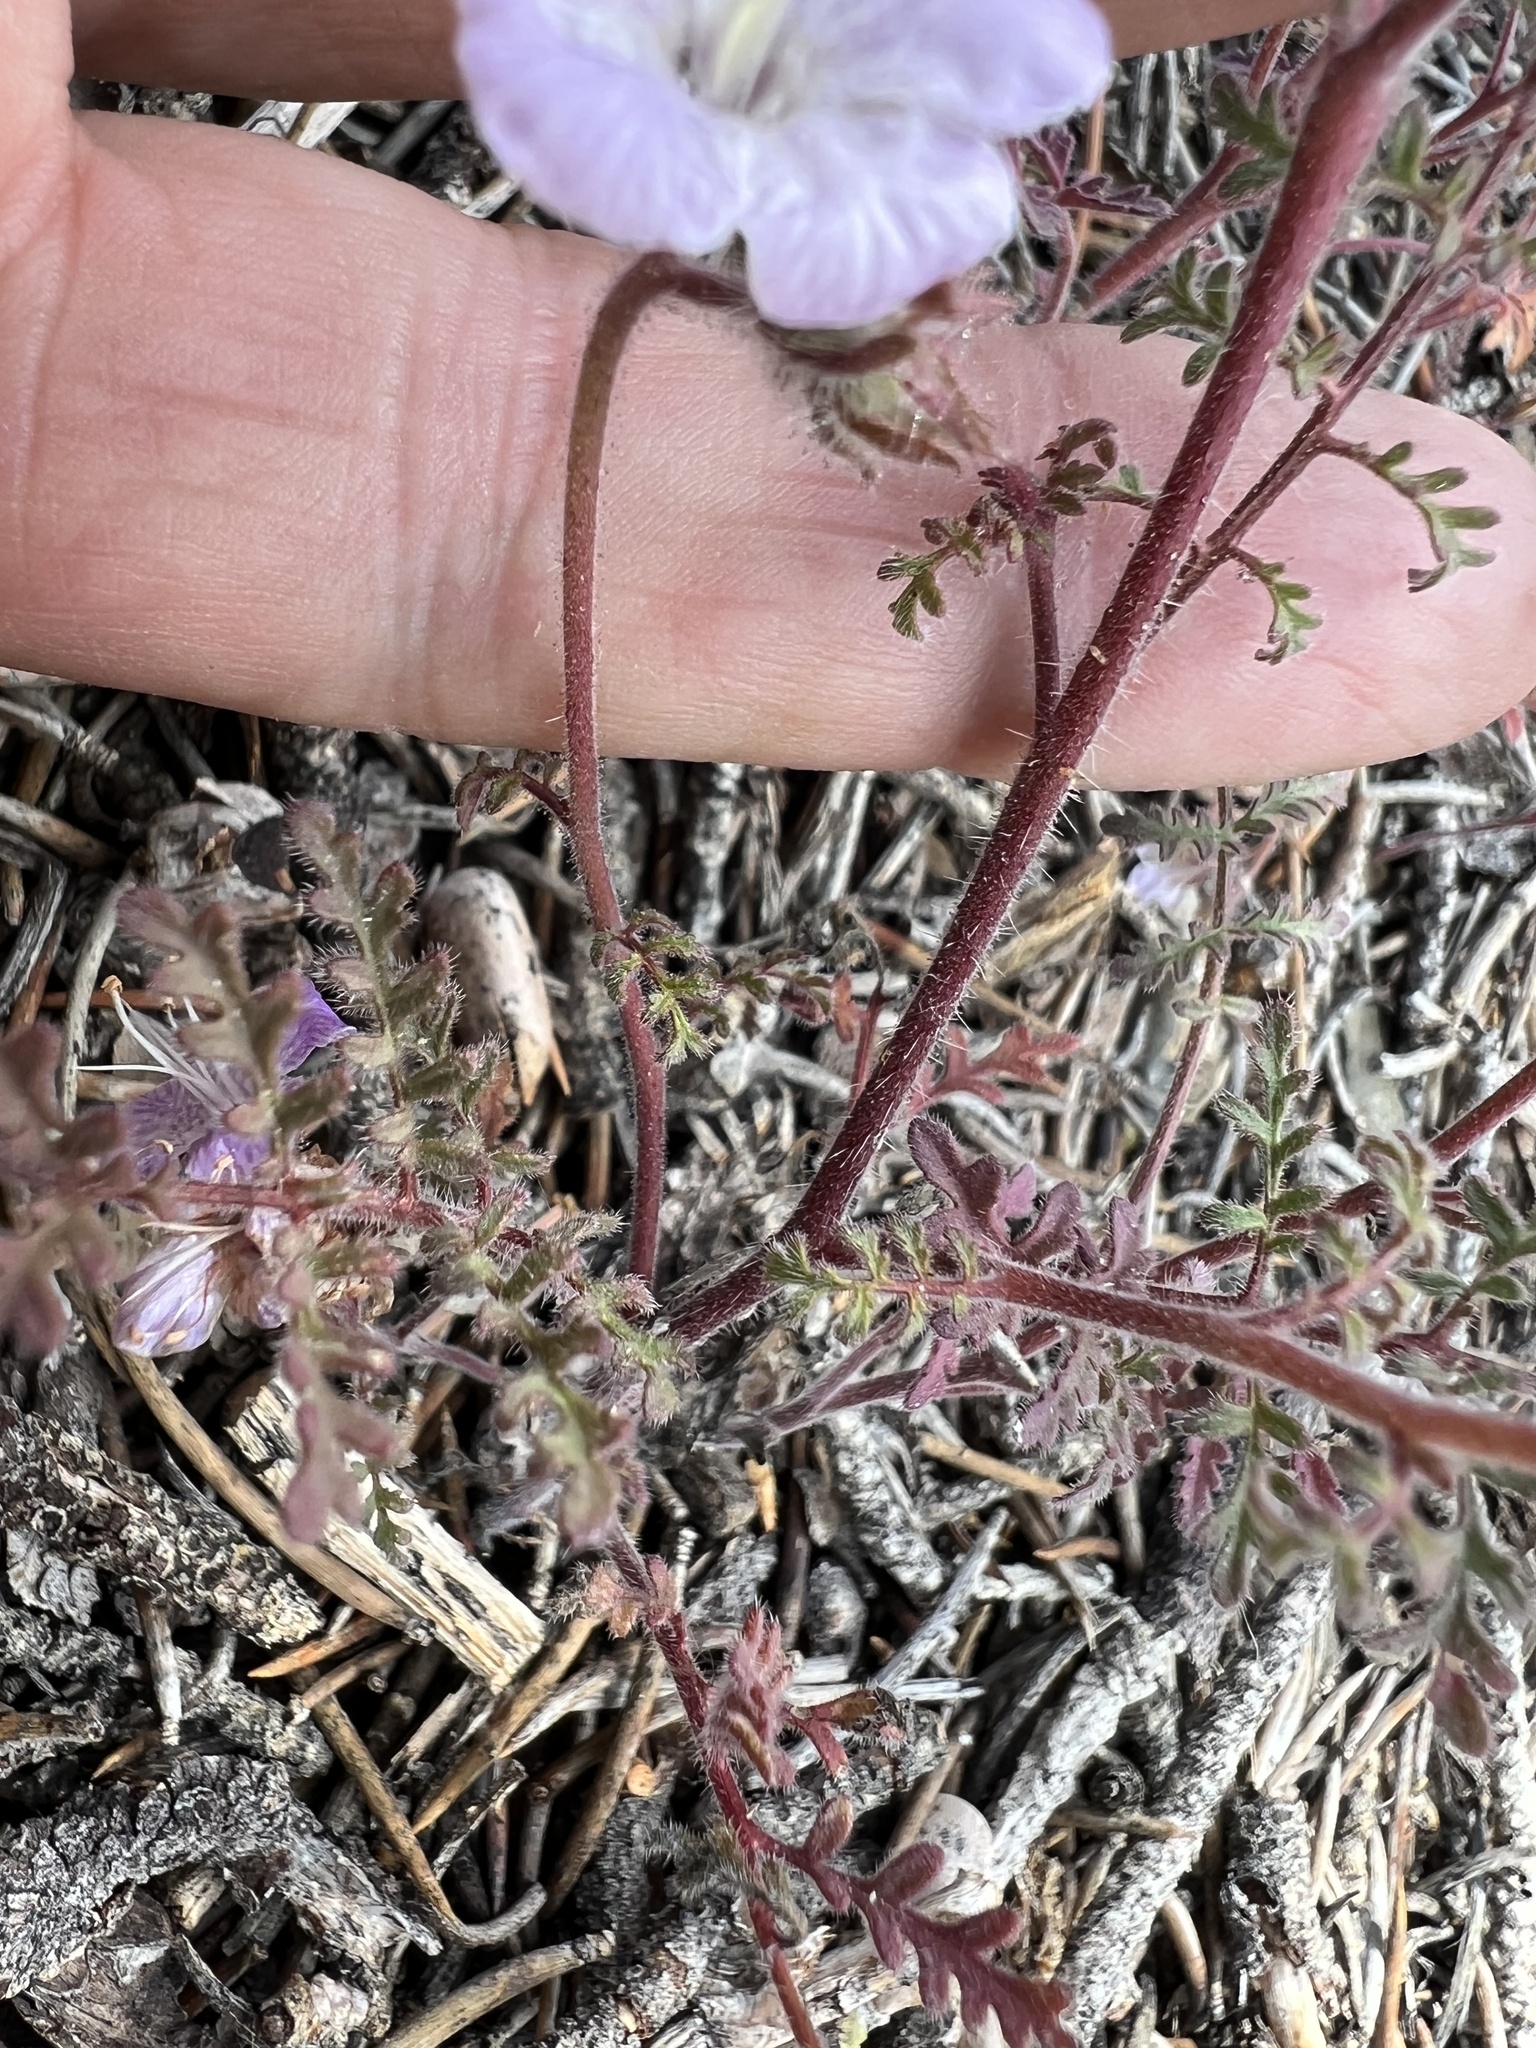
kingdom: Plantae
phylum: Tracheophyta
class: Magnoliopsida
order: Boraginales
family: Hydrophyllaceae
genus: Phacelia
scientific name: Phacelia vallis-mortae
